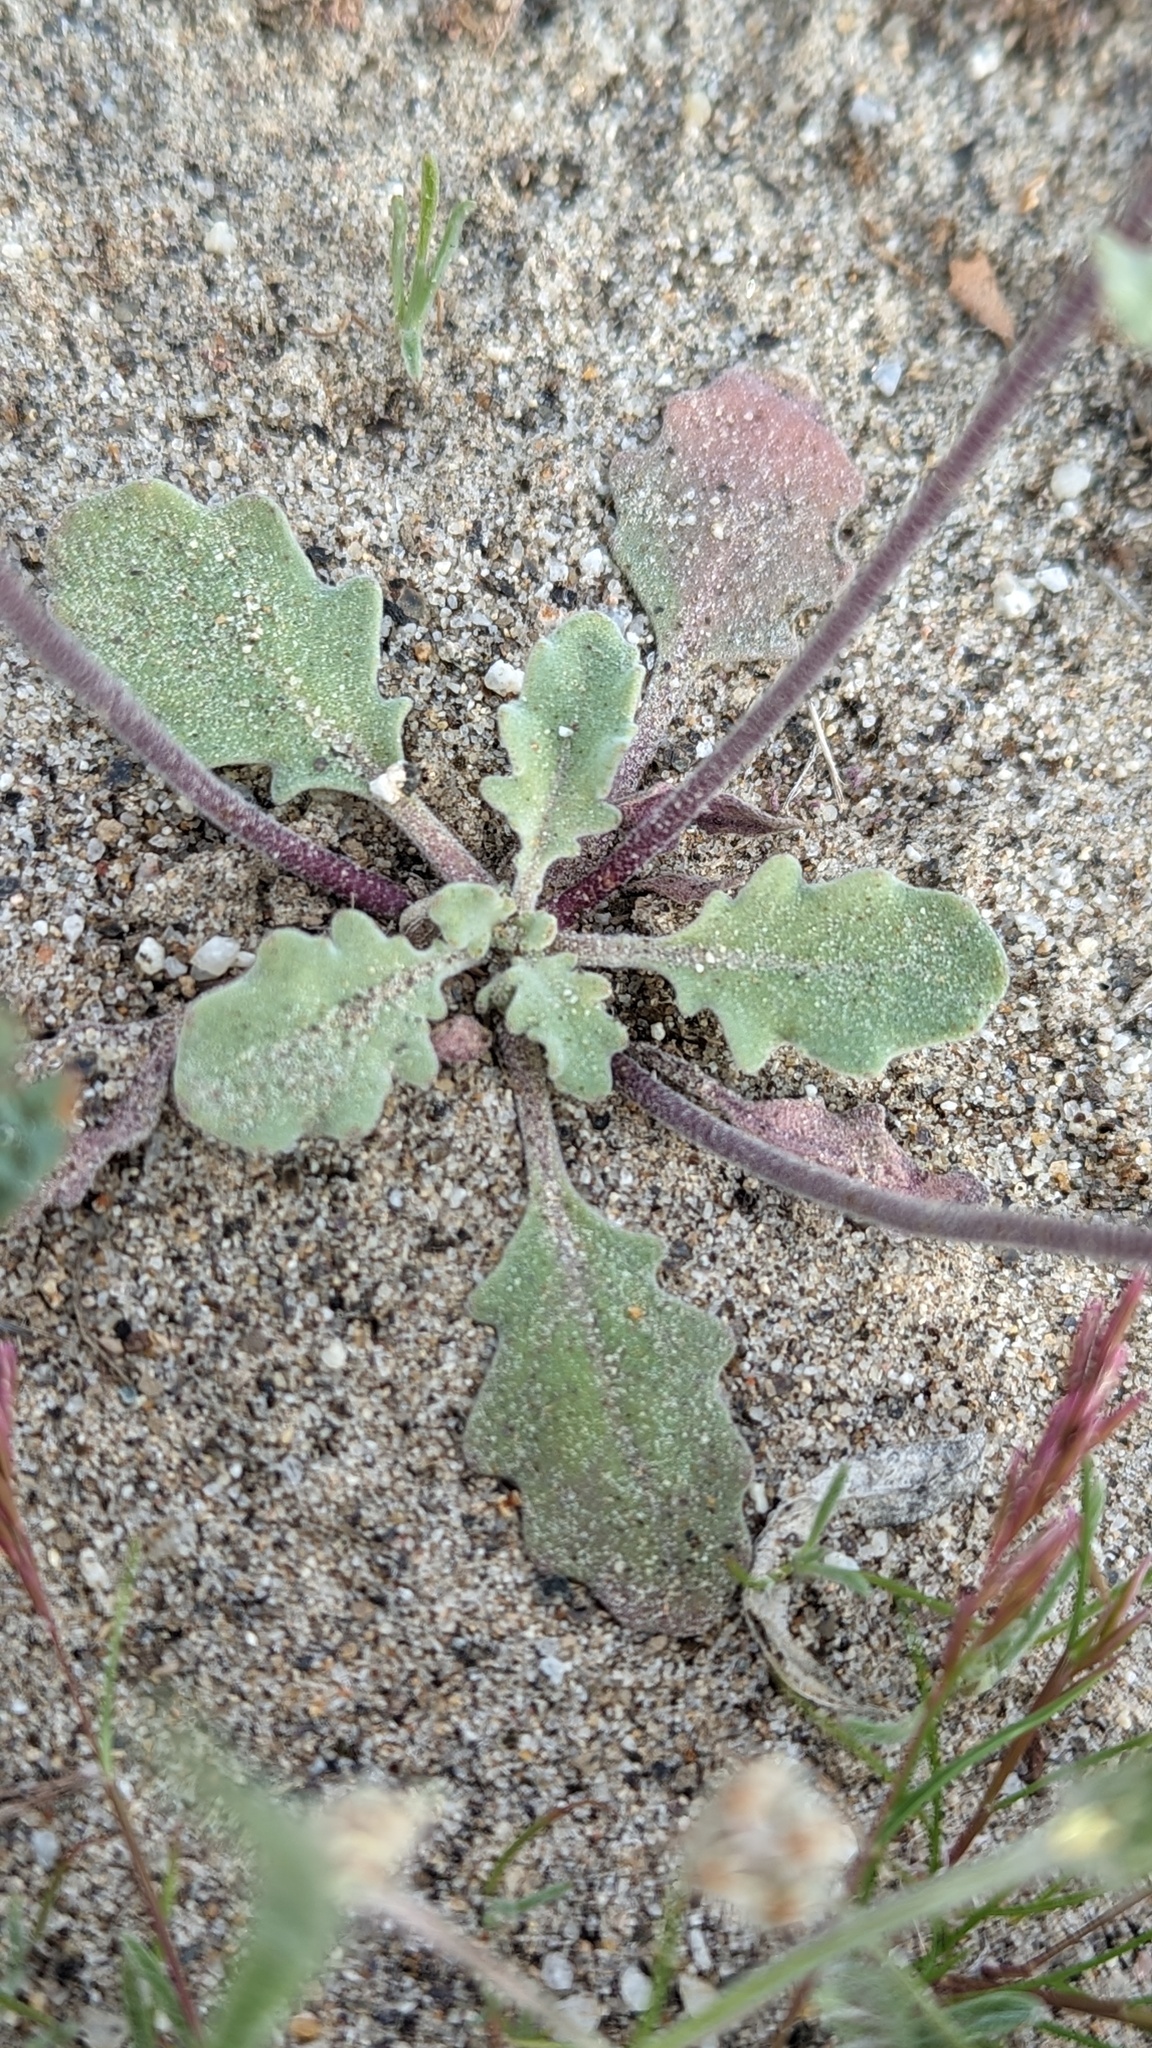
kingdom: Plantae
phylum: Tracheophyta
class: Magnoliopsida
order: Brassicales
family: Brassicaceae
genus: Dithyrea
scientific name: Dithyrea californica
